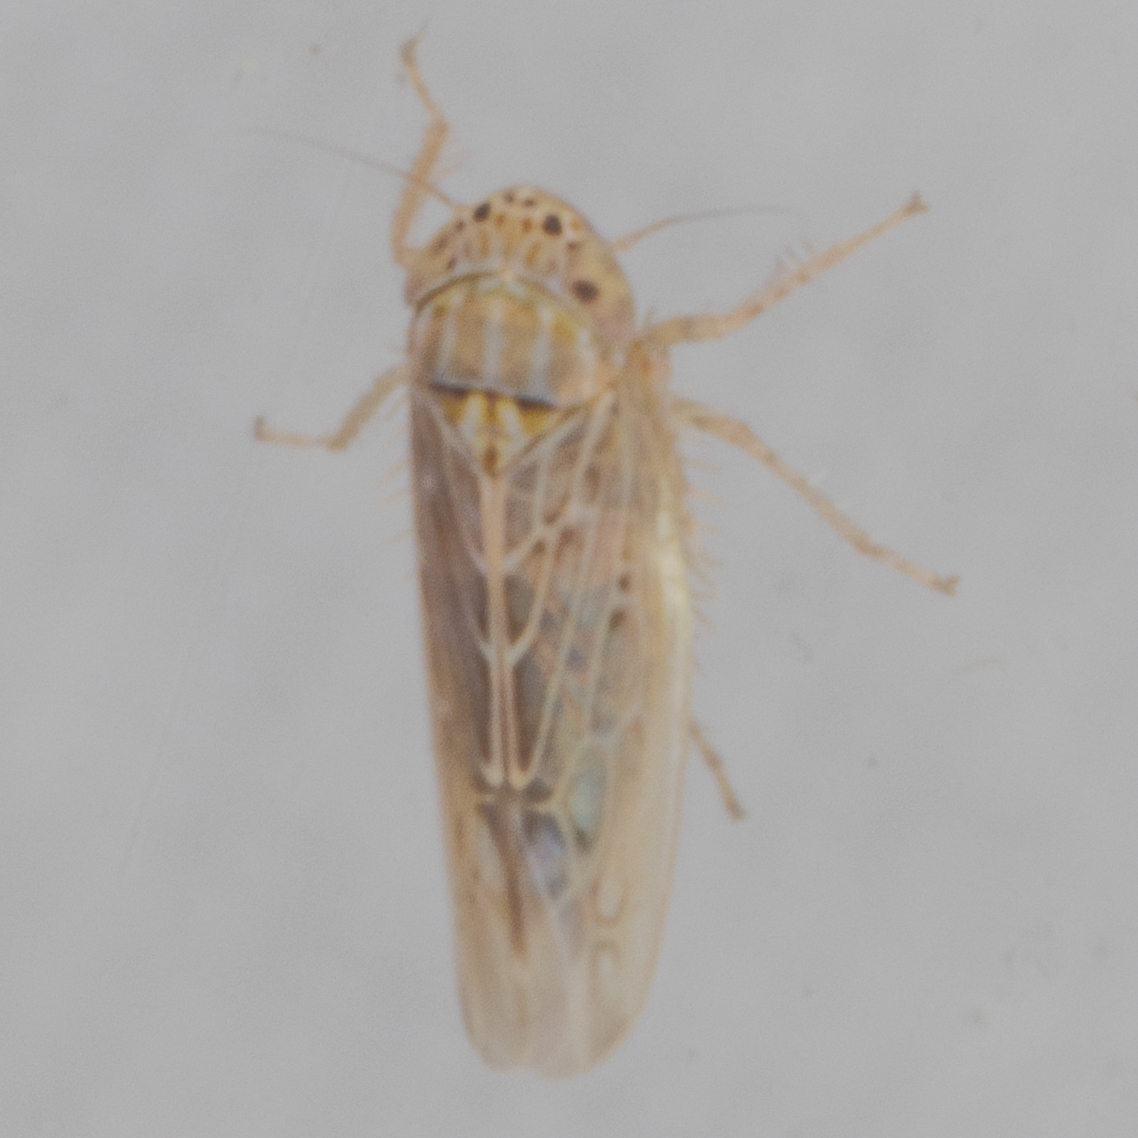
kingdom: Animalia
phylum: Arthropoda
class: Insecta
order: Hemiptera
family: Cicadellidae
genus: Graminella
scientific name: Graminella sonora
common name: Lesser lawn leafhopper
